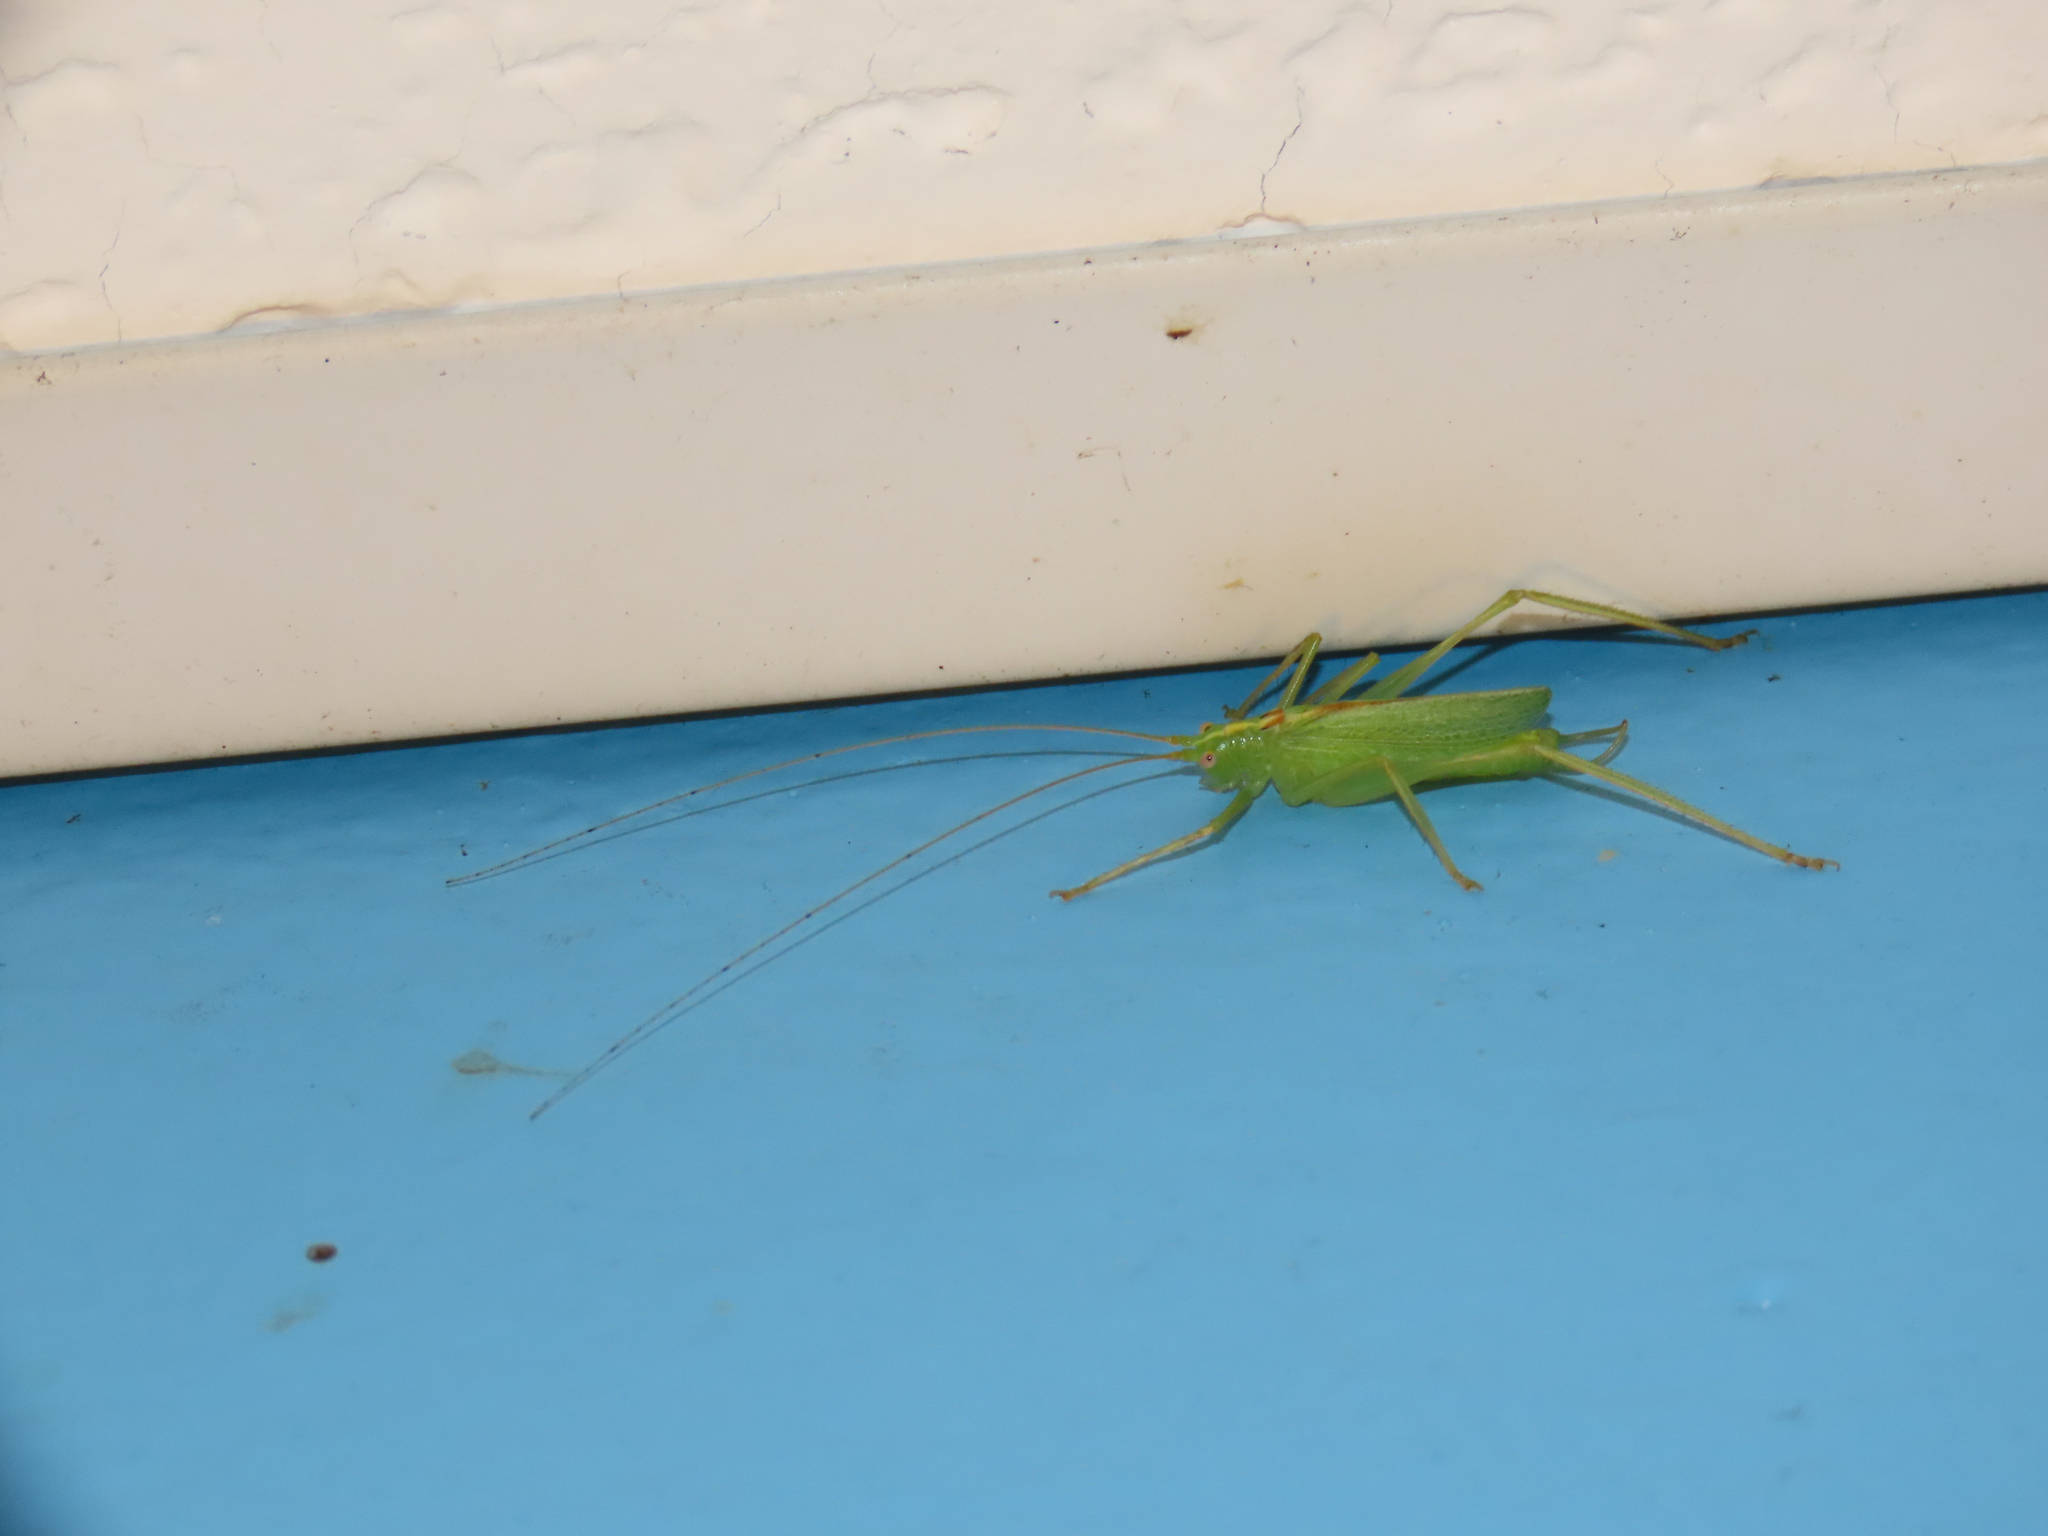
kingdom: Animalia
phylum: Arthropoda
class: Insecta
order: Orthoptera
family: Tettigoniidae
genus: Meconema
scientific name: Meconema thalassinum
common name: Oak bush-cricket
